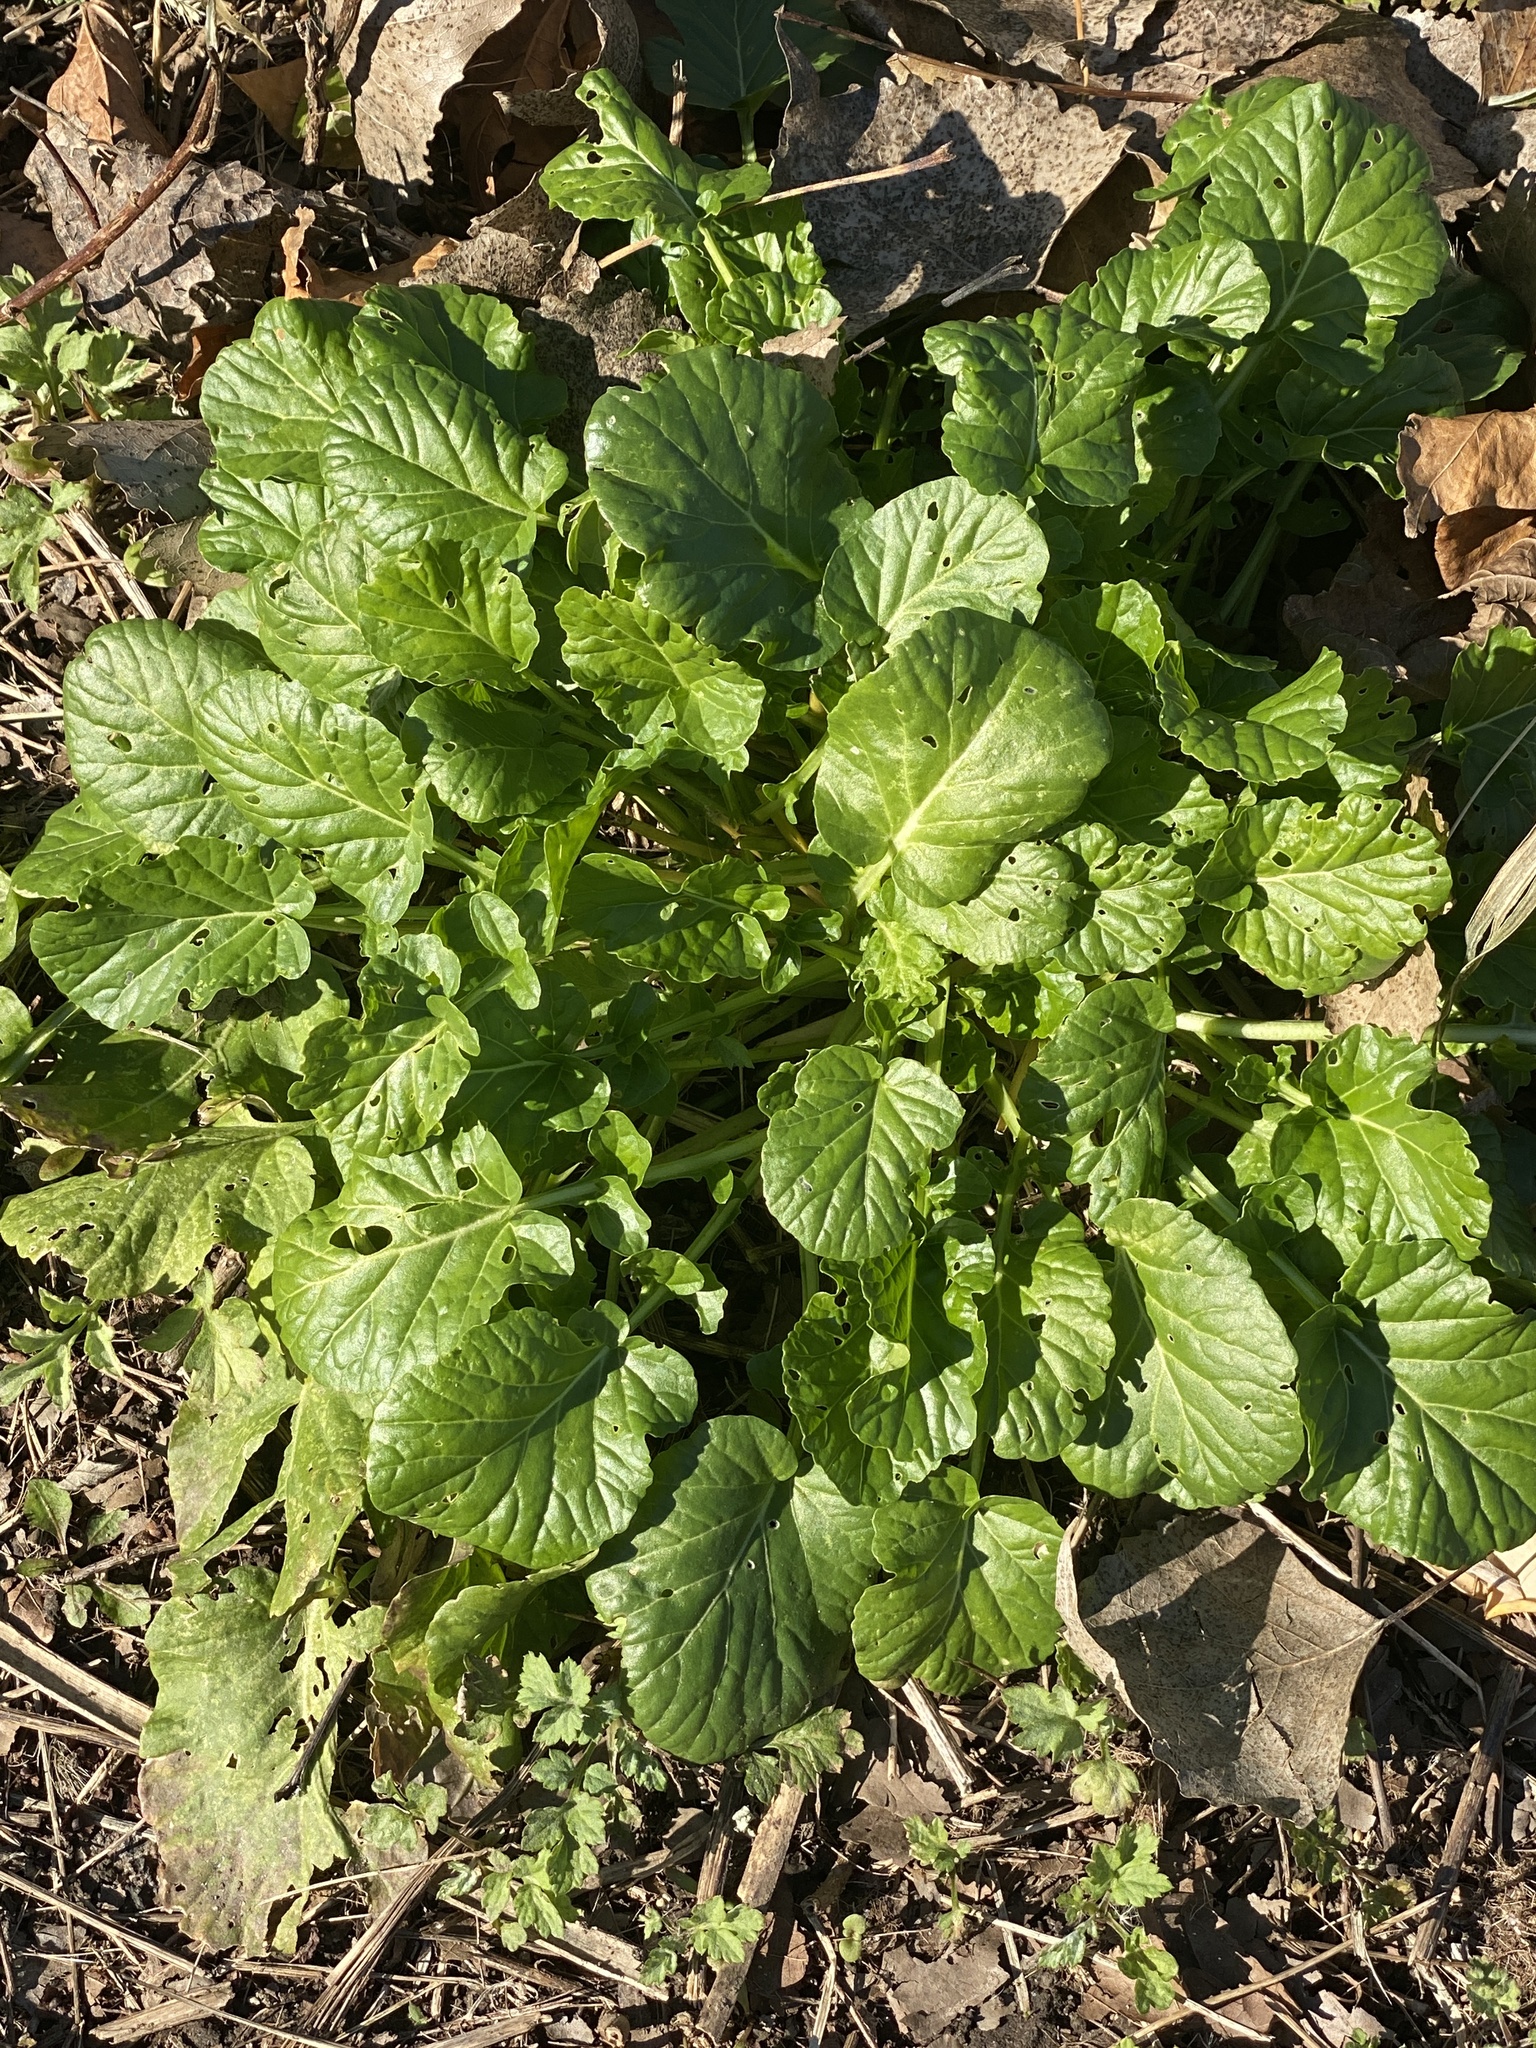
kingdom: Plantae
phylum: Tracheophyta
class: Magnoliopsida
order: Brassicales
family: Brassicaceae
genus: Barbarea
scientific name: Barbarea vulgaris
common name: Cressy-greens
